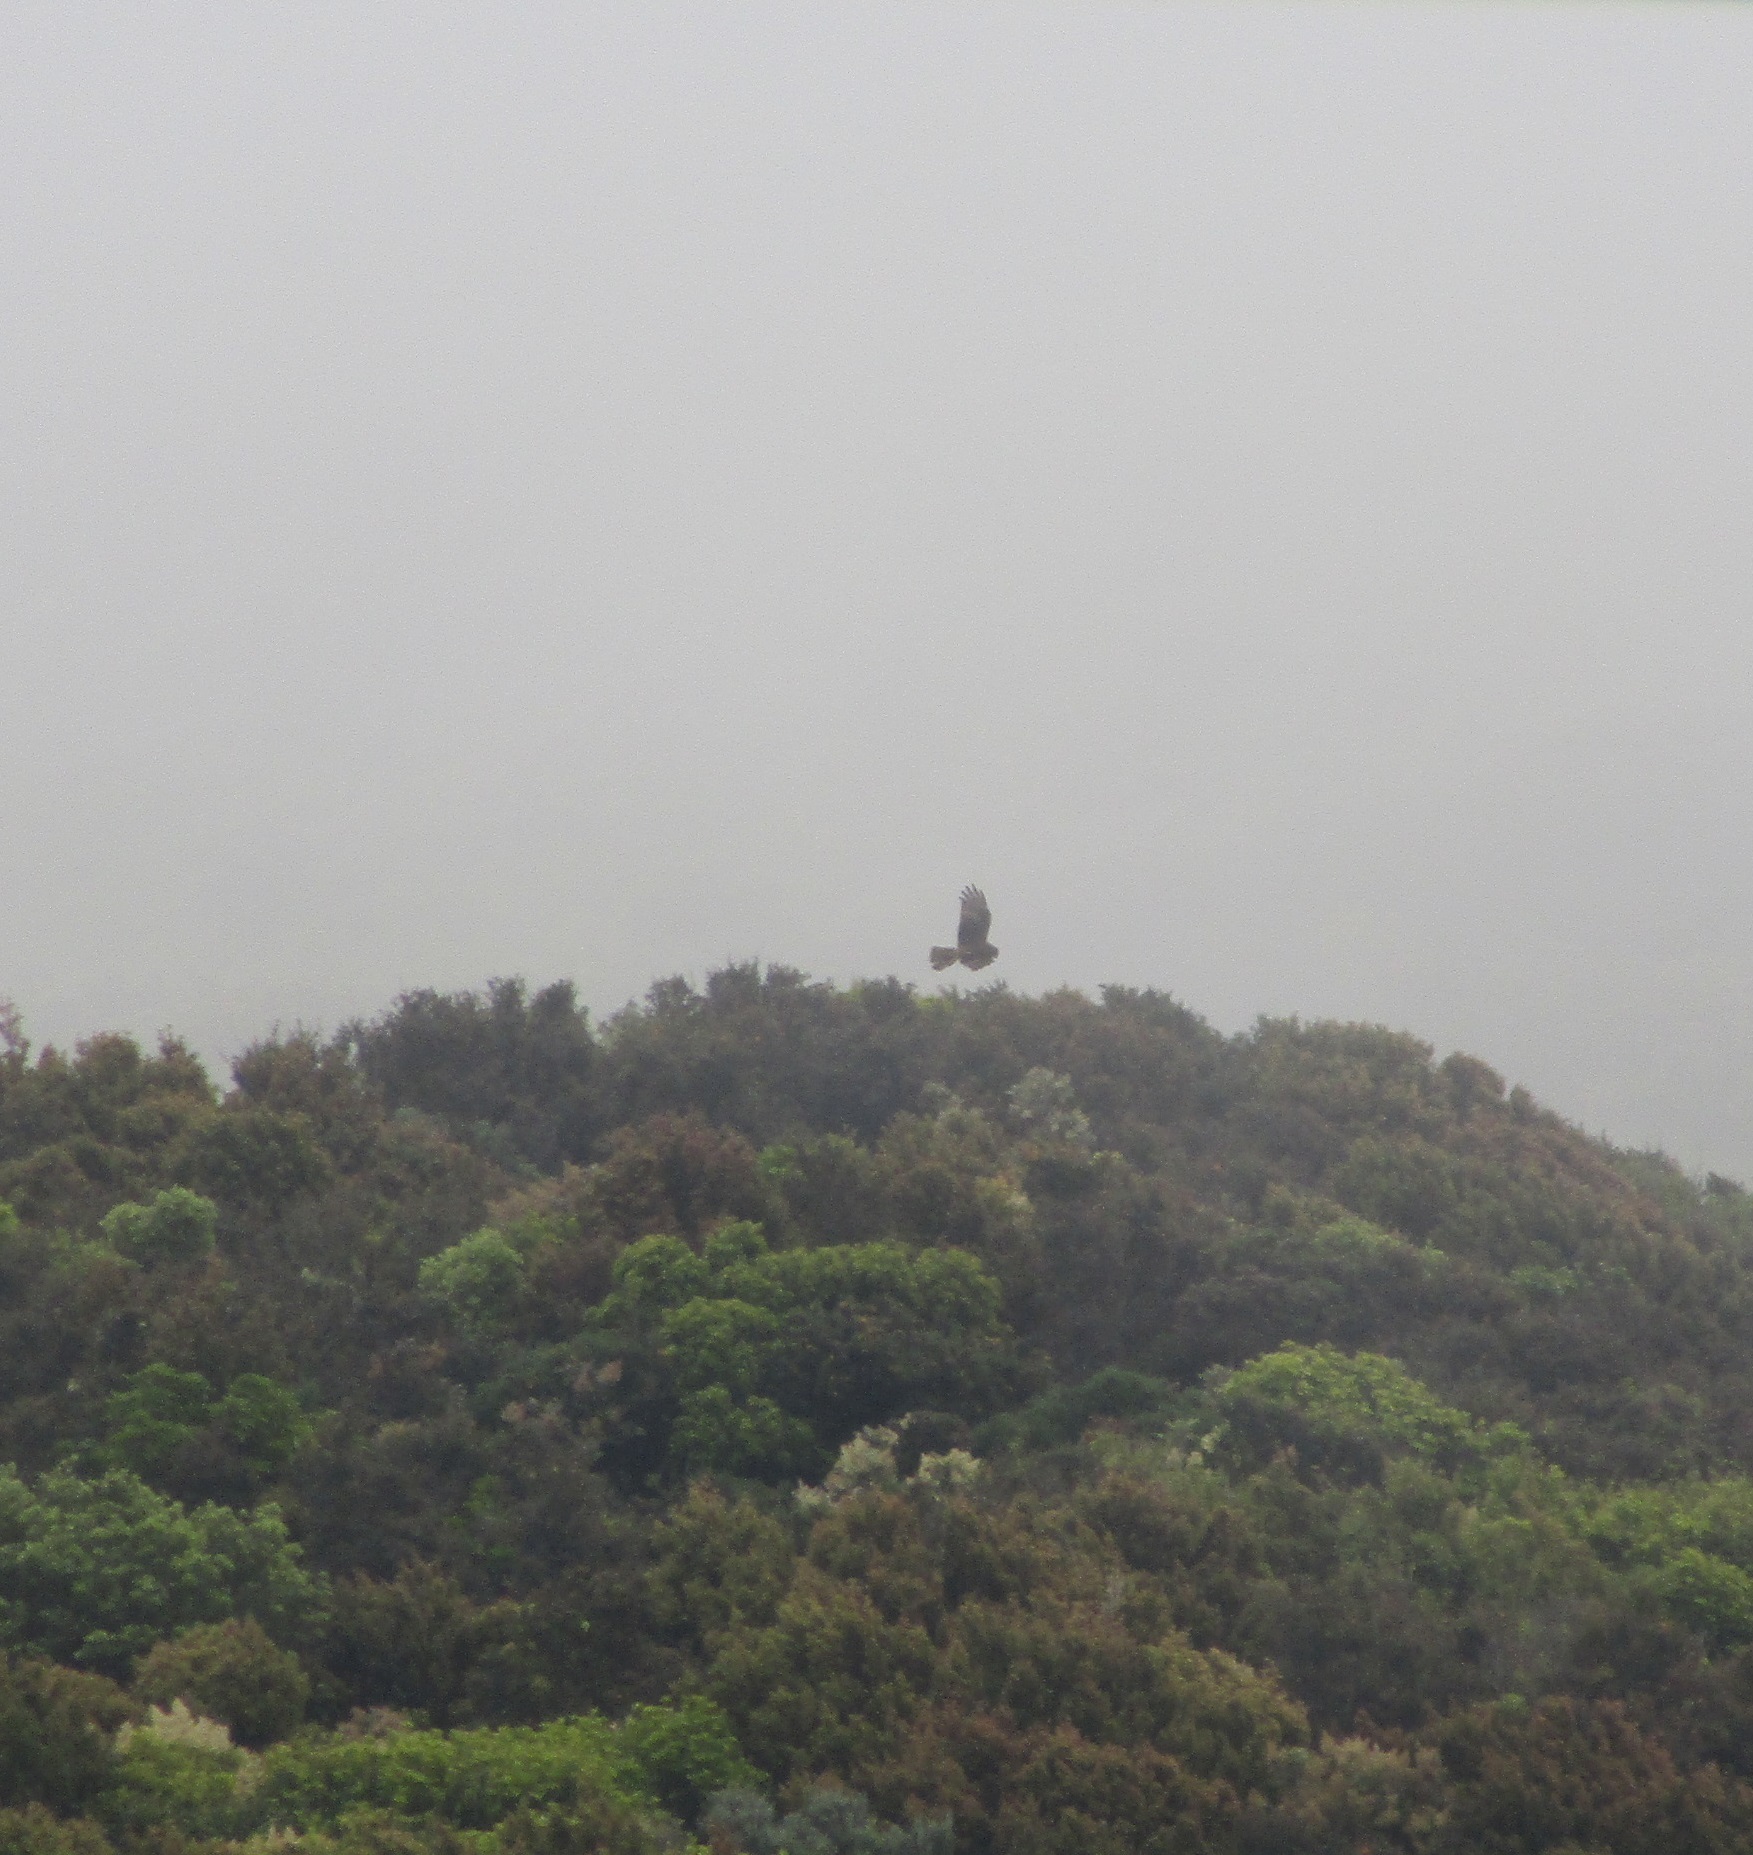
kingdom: Animalia
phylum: Chordata
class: Aves
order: Accipitriformes
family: Accipitridae
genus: Circus
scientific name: Circus approximans
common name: Swamp harrier
